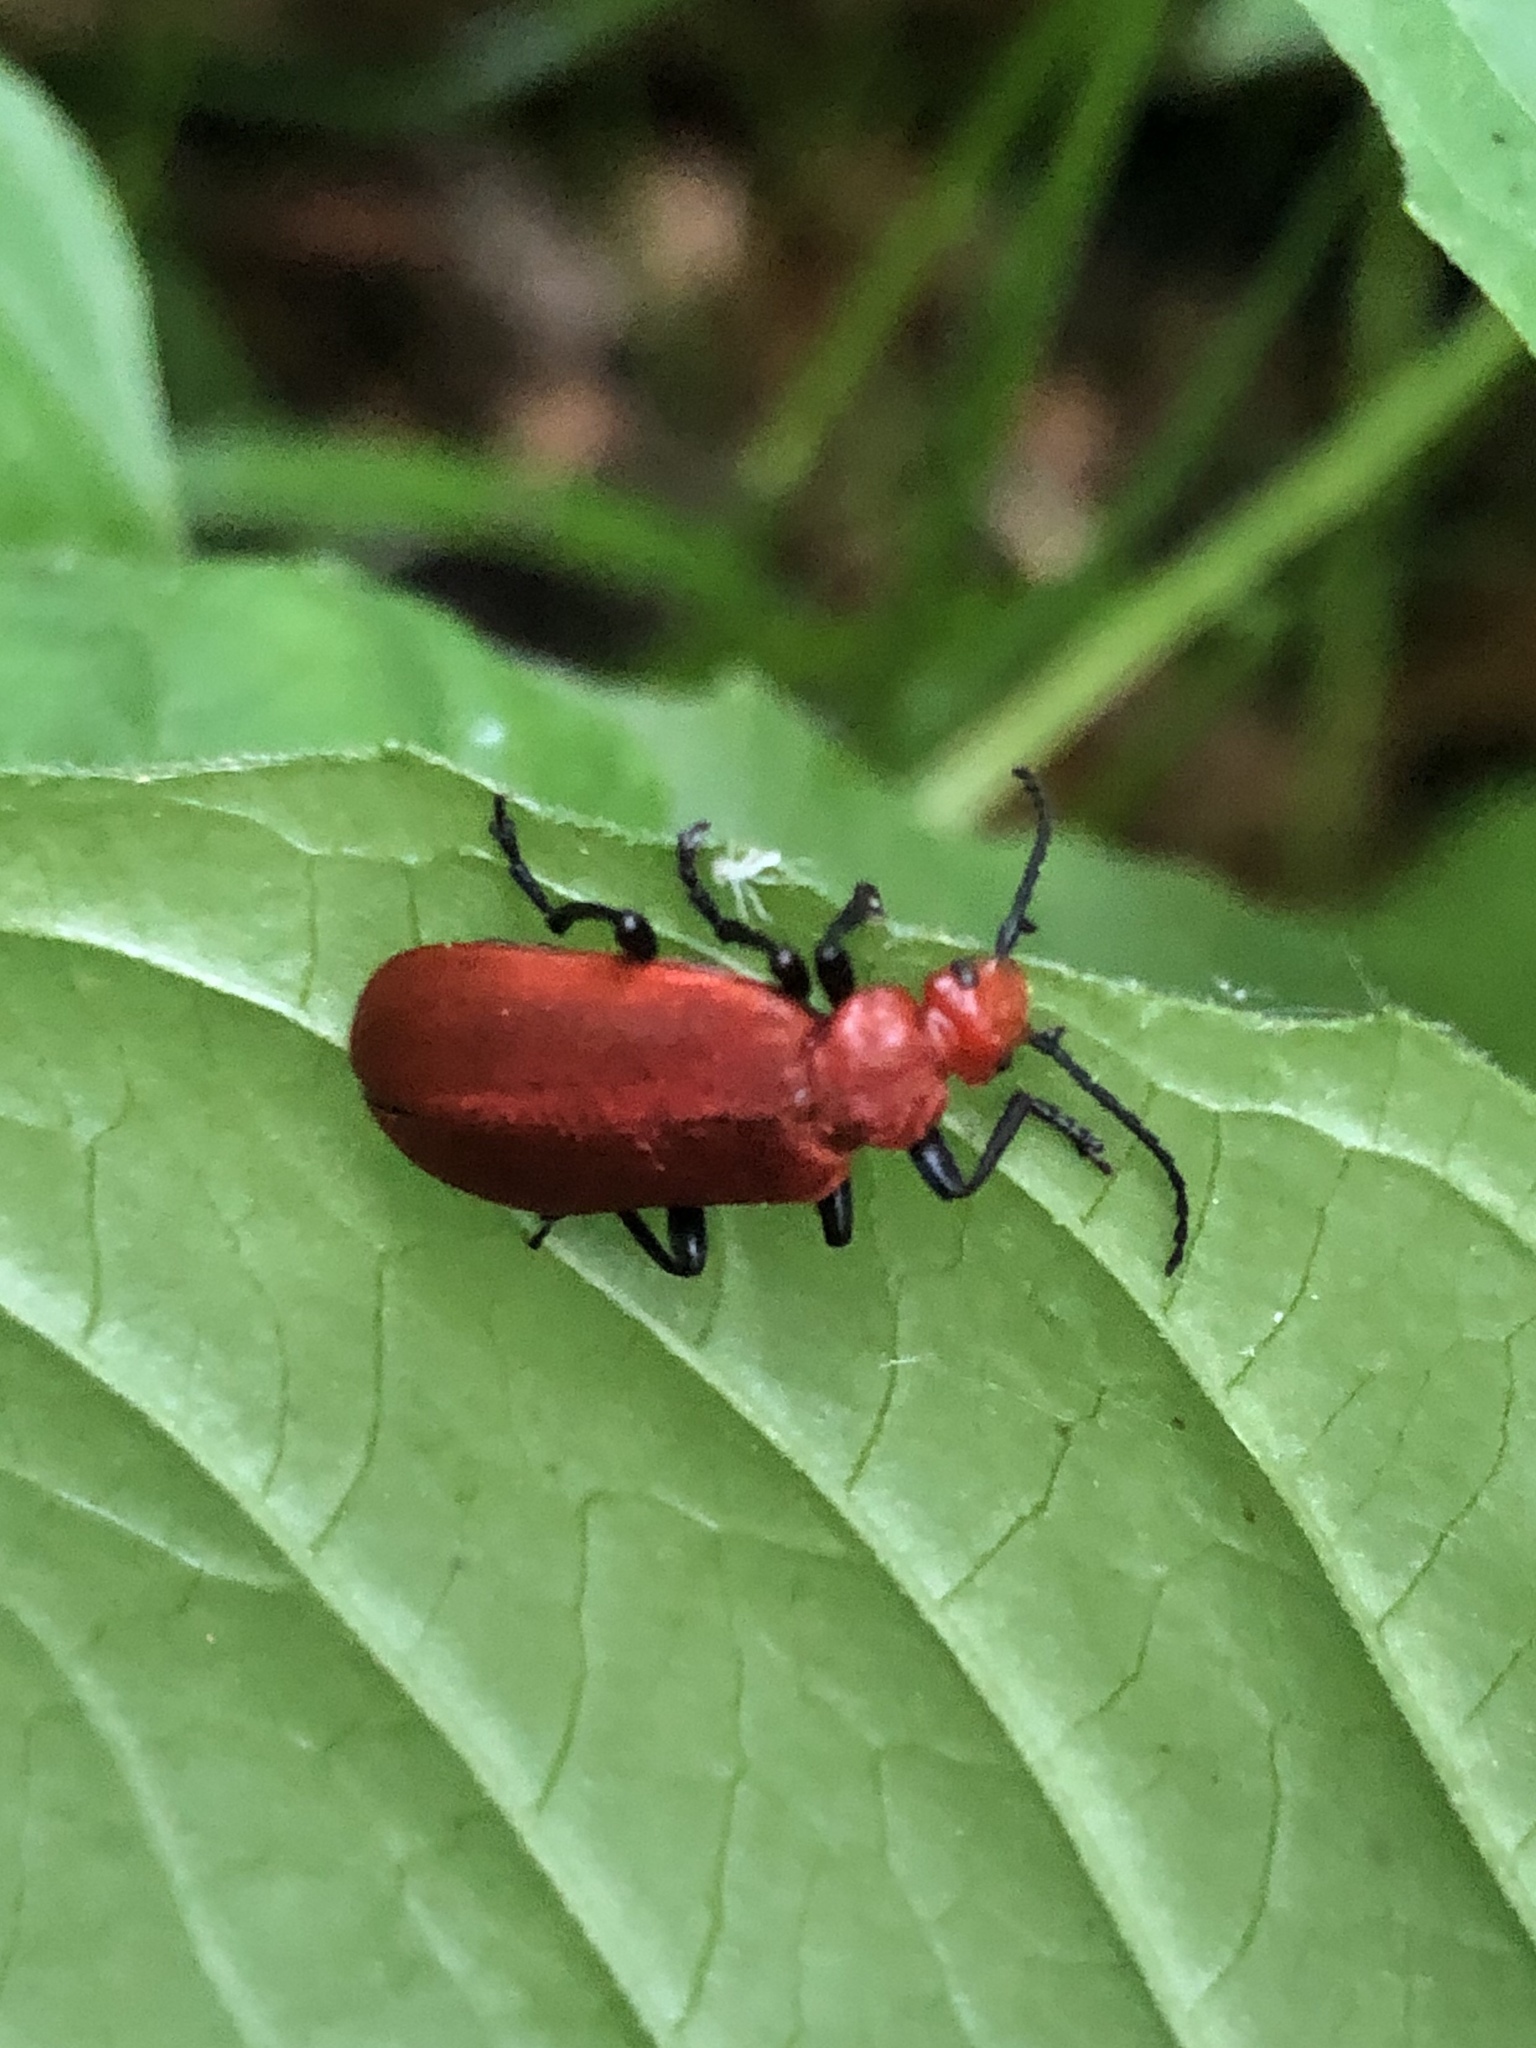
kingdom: Animalia
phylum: Arthropoda
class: Insecta
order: Coleoptera
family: Pyrochroidae
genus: Pyrochroa
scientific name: Pyrochroa serraticornis
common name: Red-headed cardinal beetle
